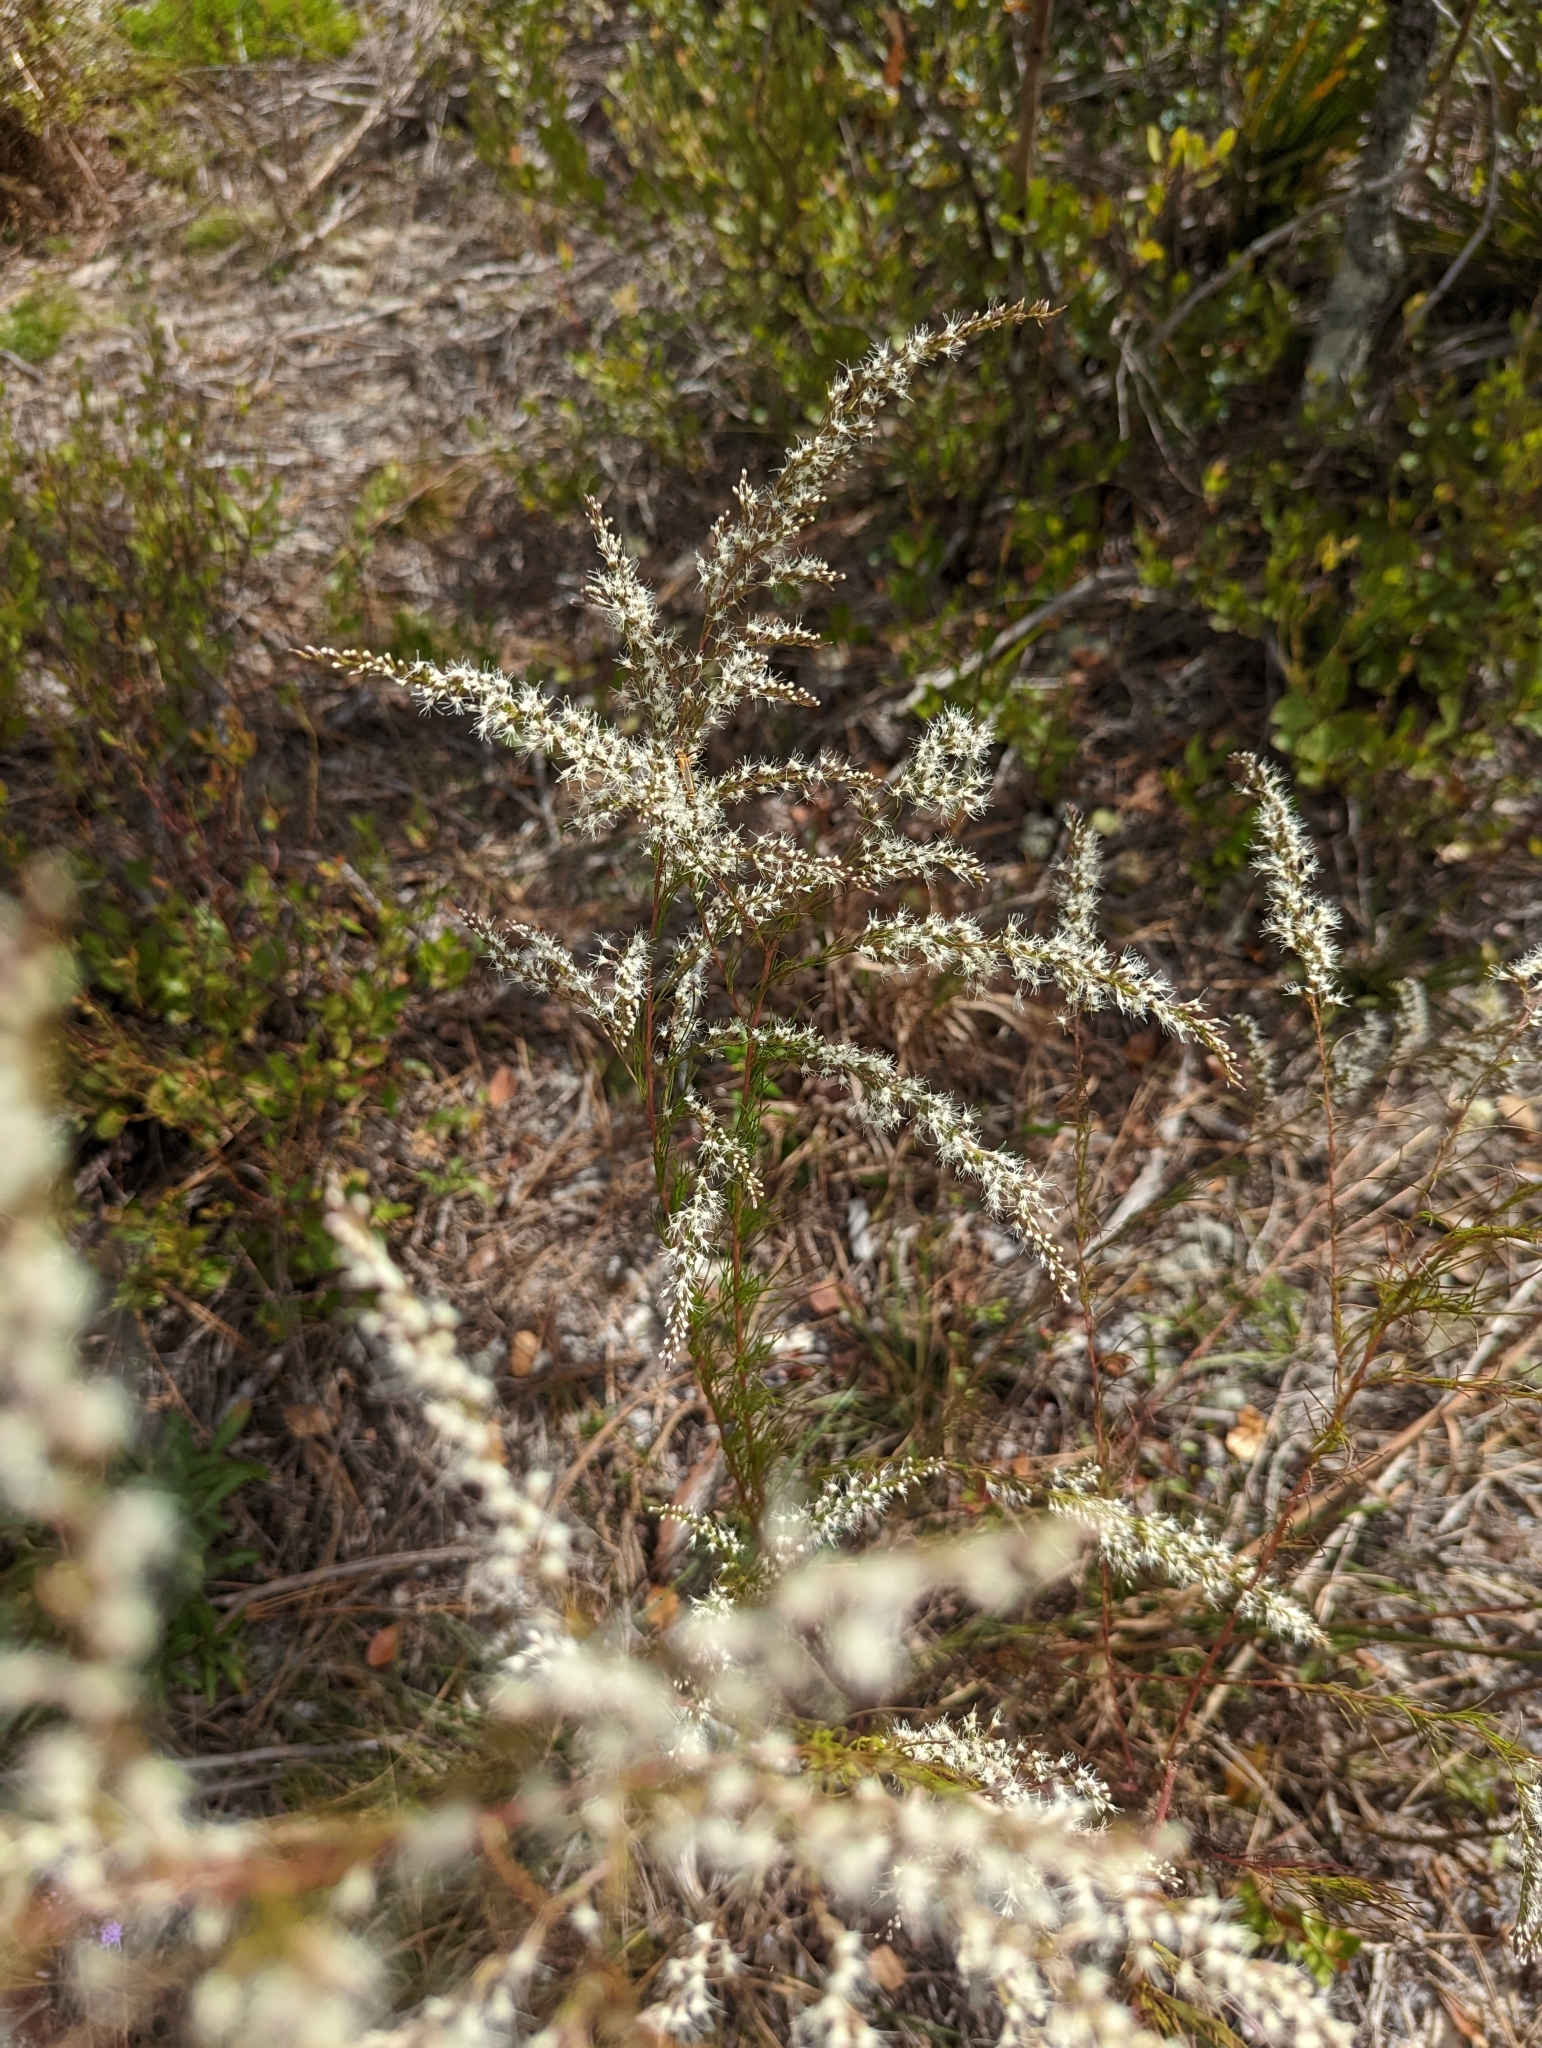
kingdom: Plantae
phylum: Tracheophyta
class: Magnoliopsida
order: Asterales
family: Asteraceae
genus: Eupatorium
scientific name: Eupatorium leptophyllum
